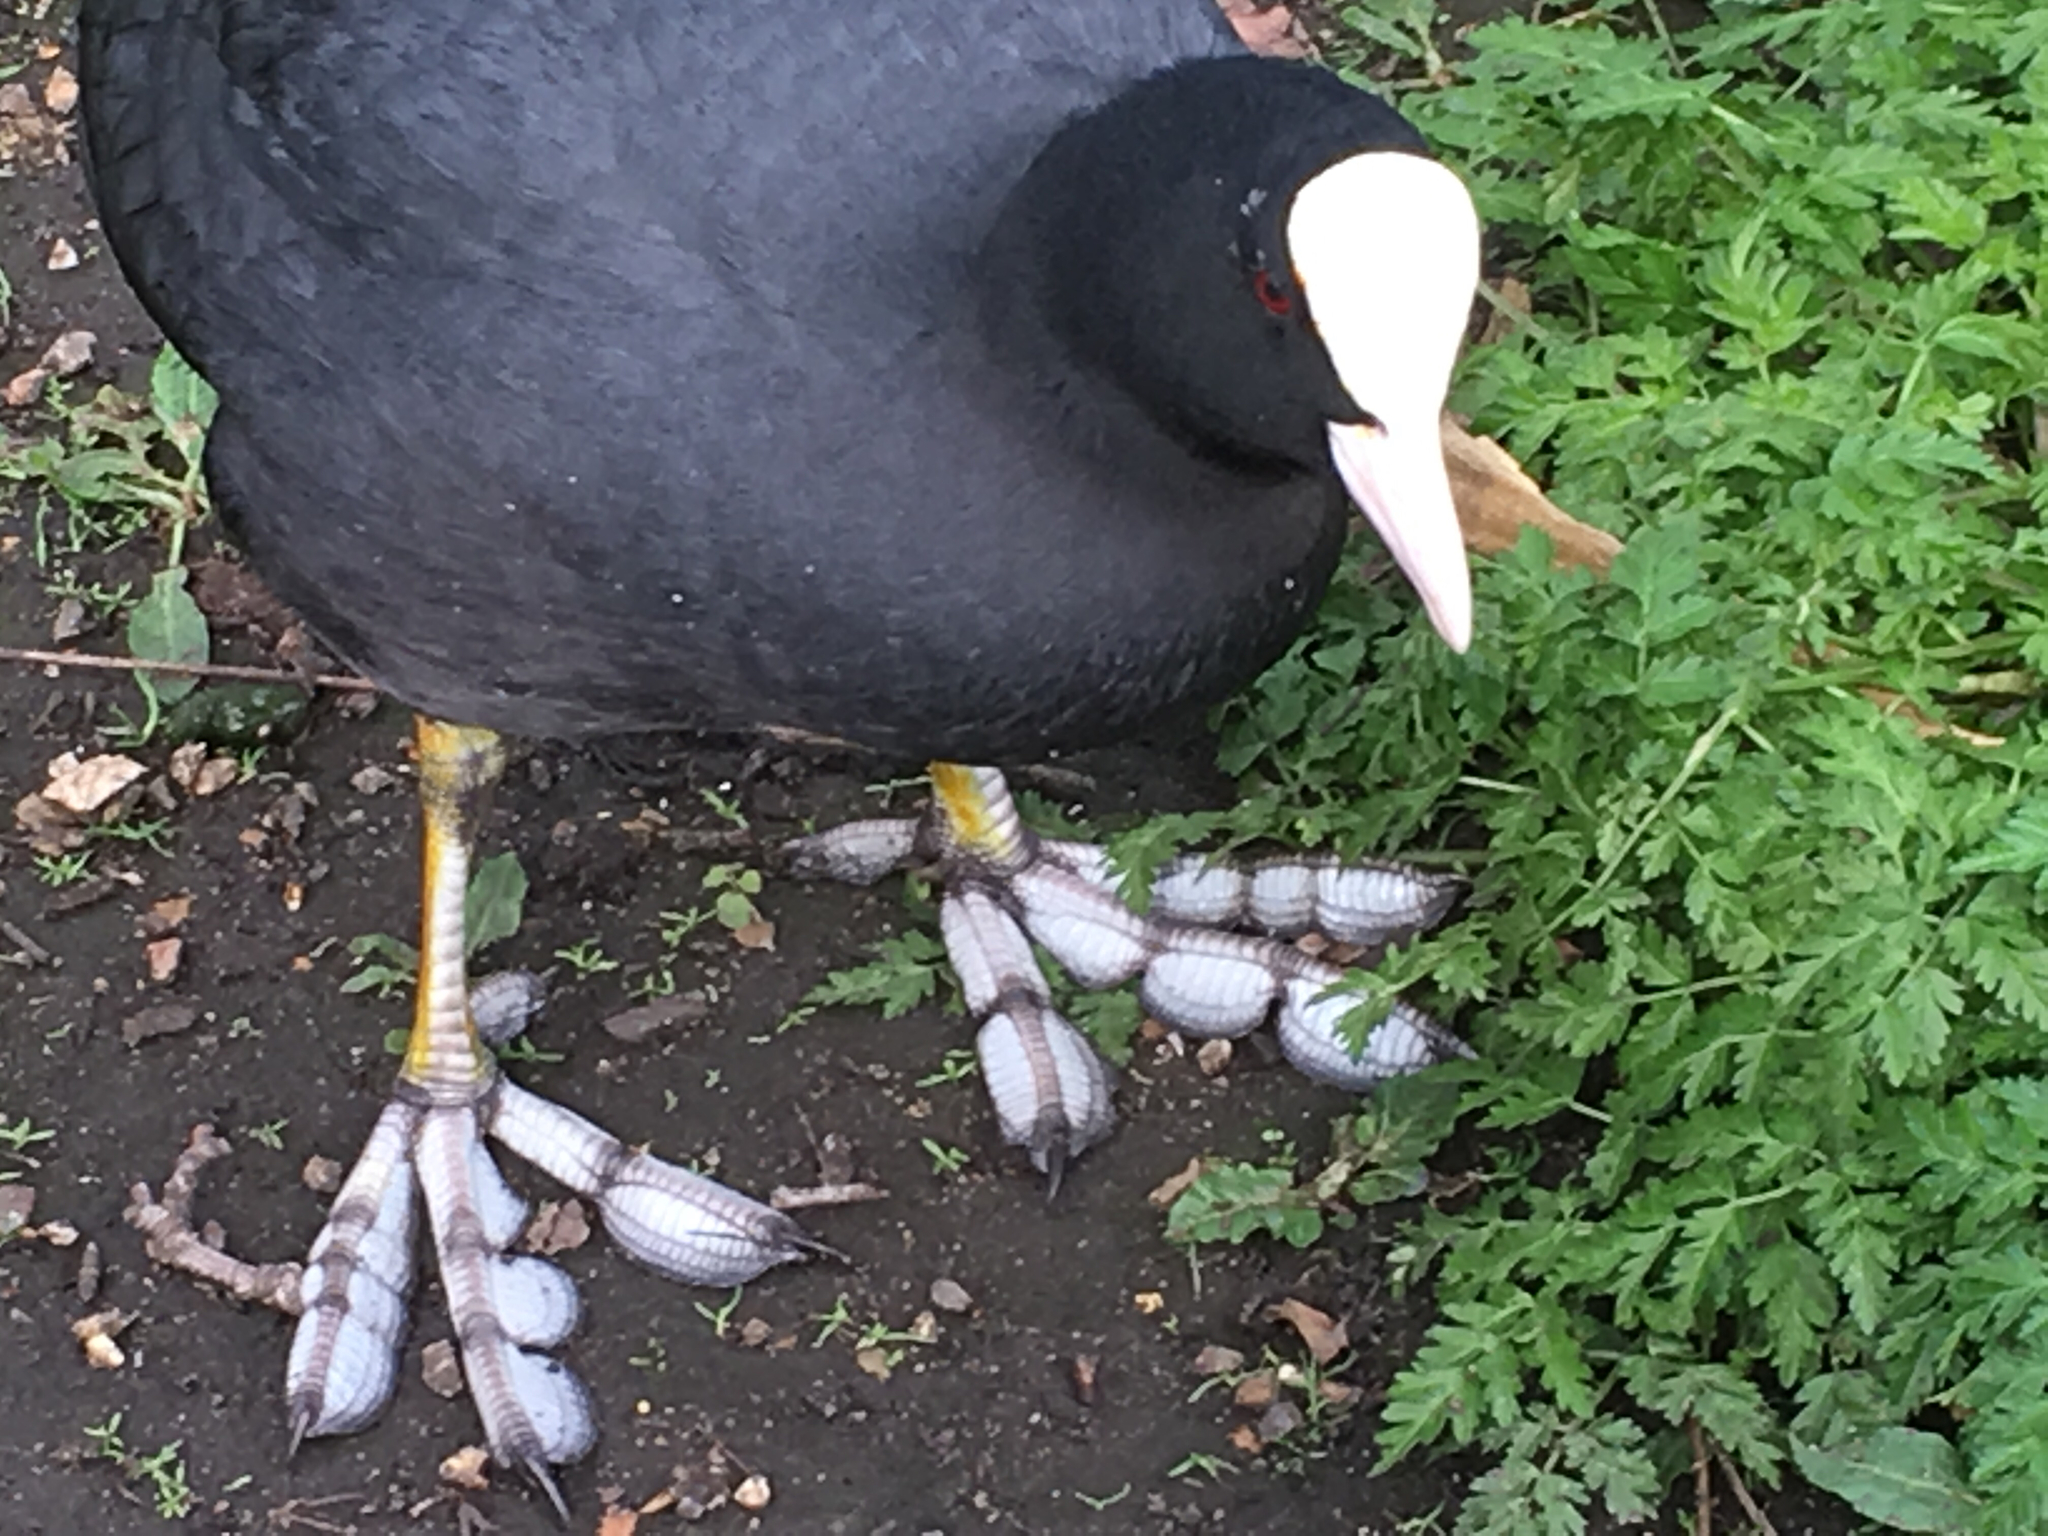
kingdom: Animalia
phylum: Chordata
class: Aves
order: Gruiformes
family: Rallidae
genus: Fulica
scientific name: Fulica atra
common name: Eurasian coot
